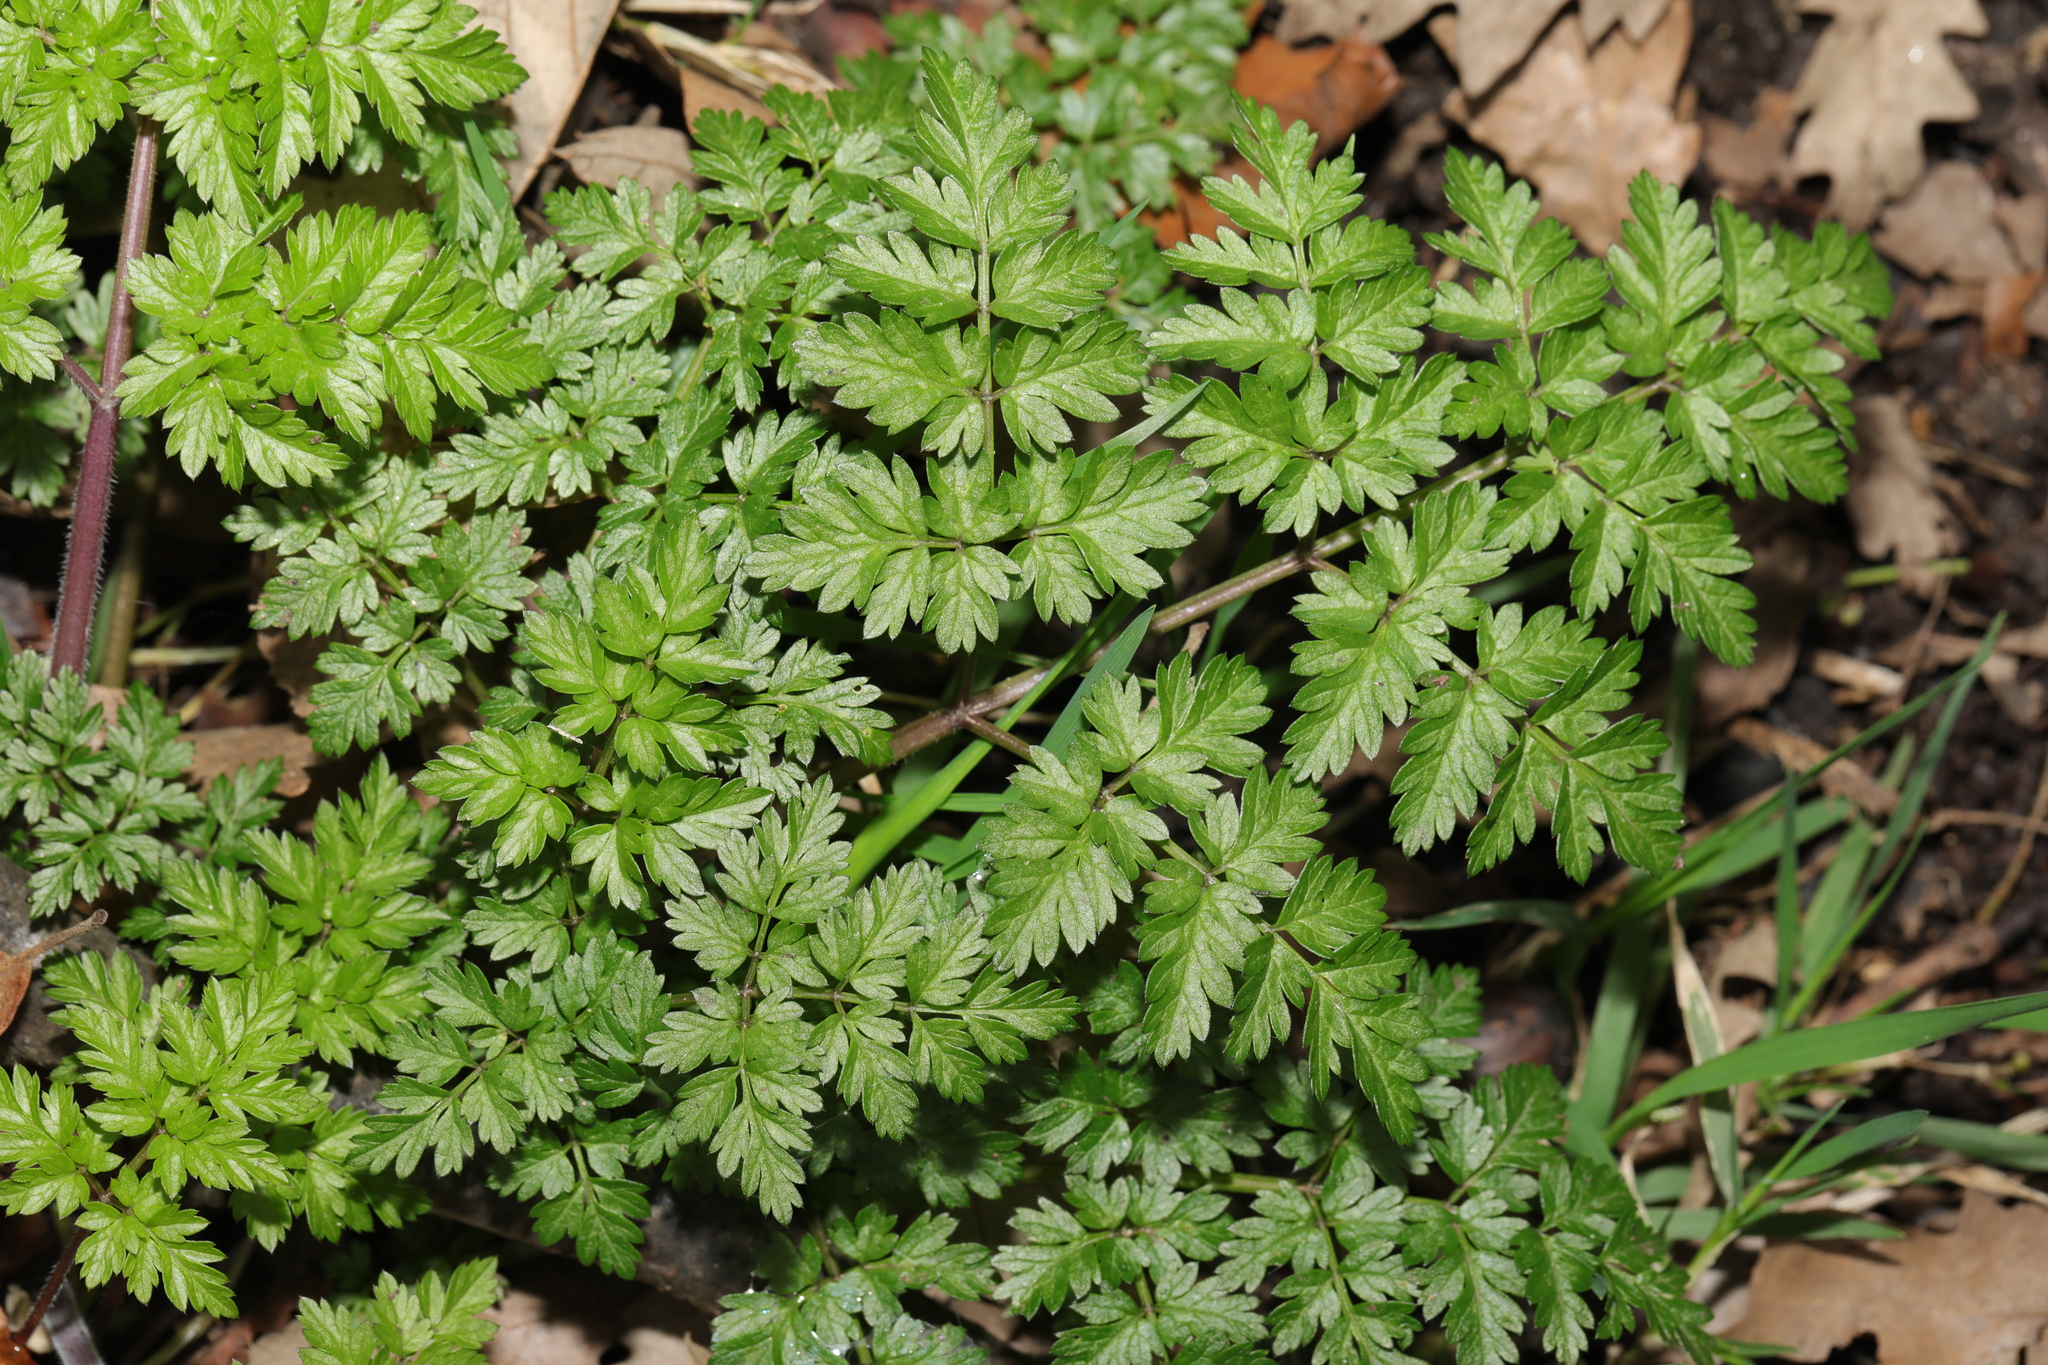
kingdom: Plantae
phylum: Tracheophyta
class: Magnoliopsida
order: Apiales
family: Apiaceae
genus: Anthriscus
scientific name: Anthriscus sylvestris
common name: Cow parsley
